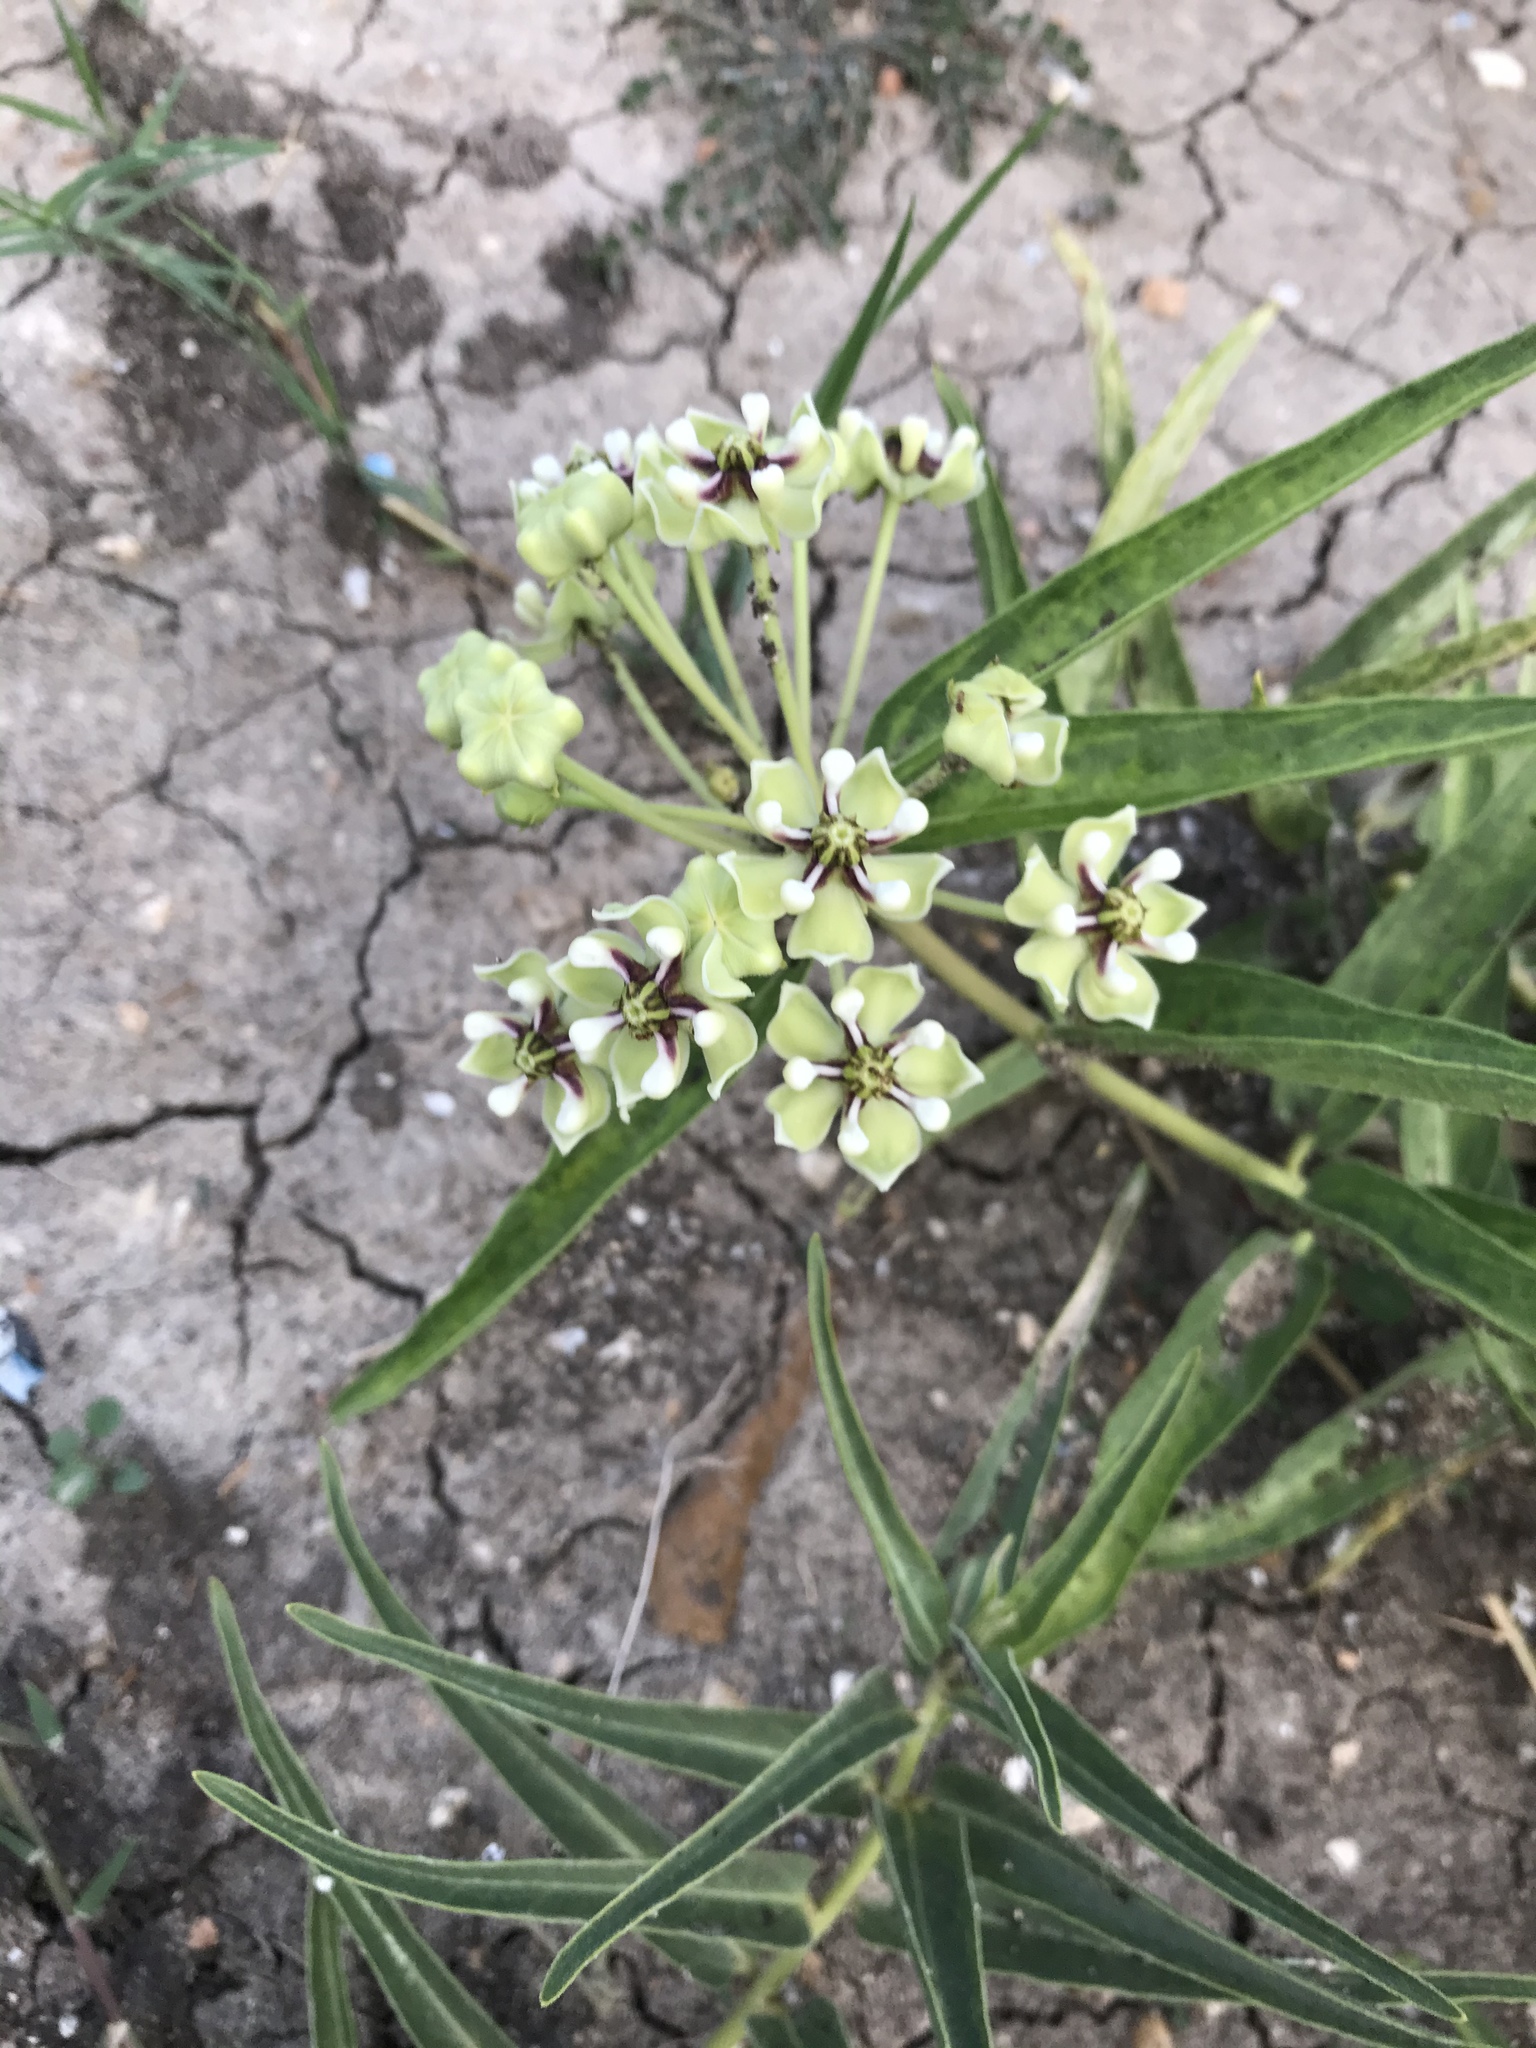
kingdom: Plantae
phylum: Tracheophyta
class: Magnoliopsida
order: Gentianales
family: Apocynaceae
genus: Asclepias
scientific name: Asclepias asperula
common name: Antelope horns
